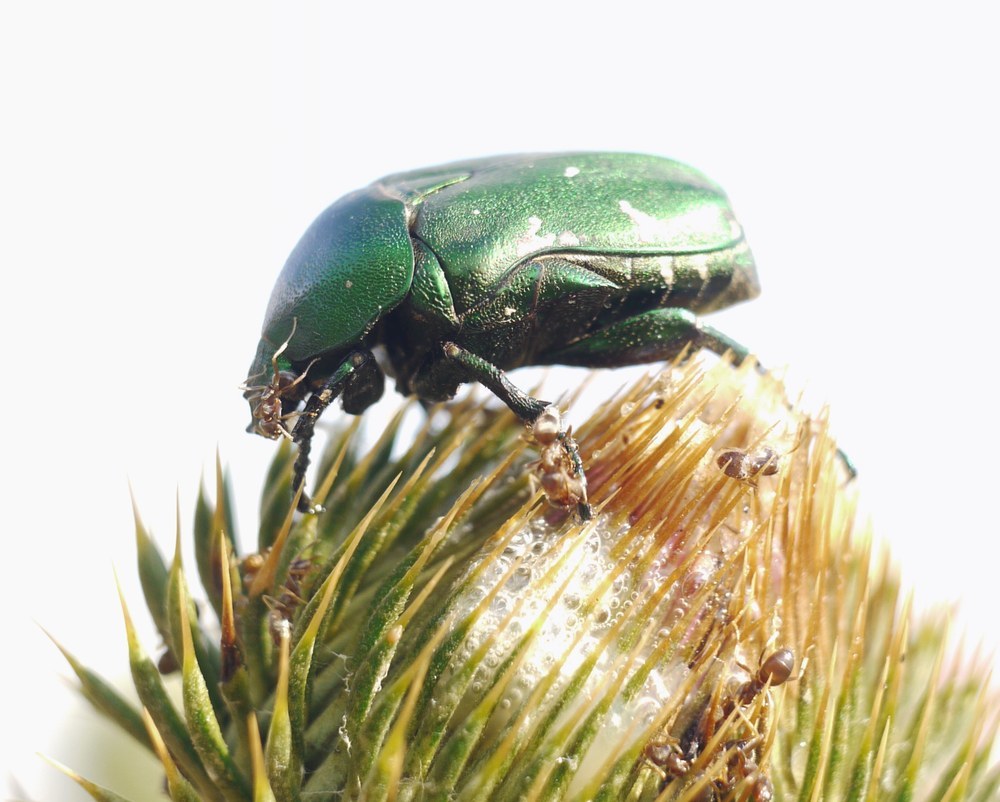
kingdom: Animalia
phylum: Arthropoda
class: Insecta
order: Coleoptera
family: Scarabaeidae
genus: Protaetia
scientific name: Protaetia ungarica
